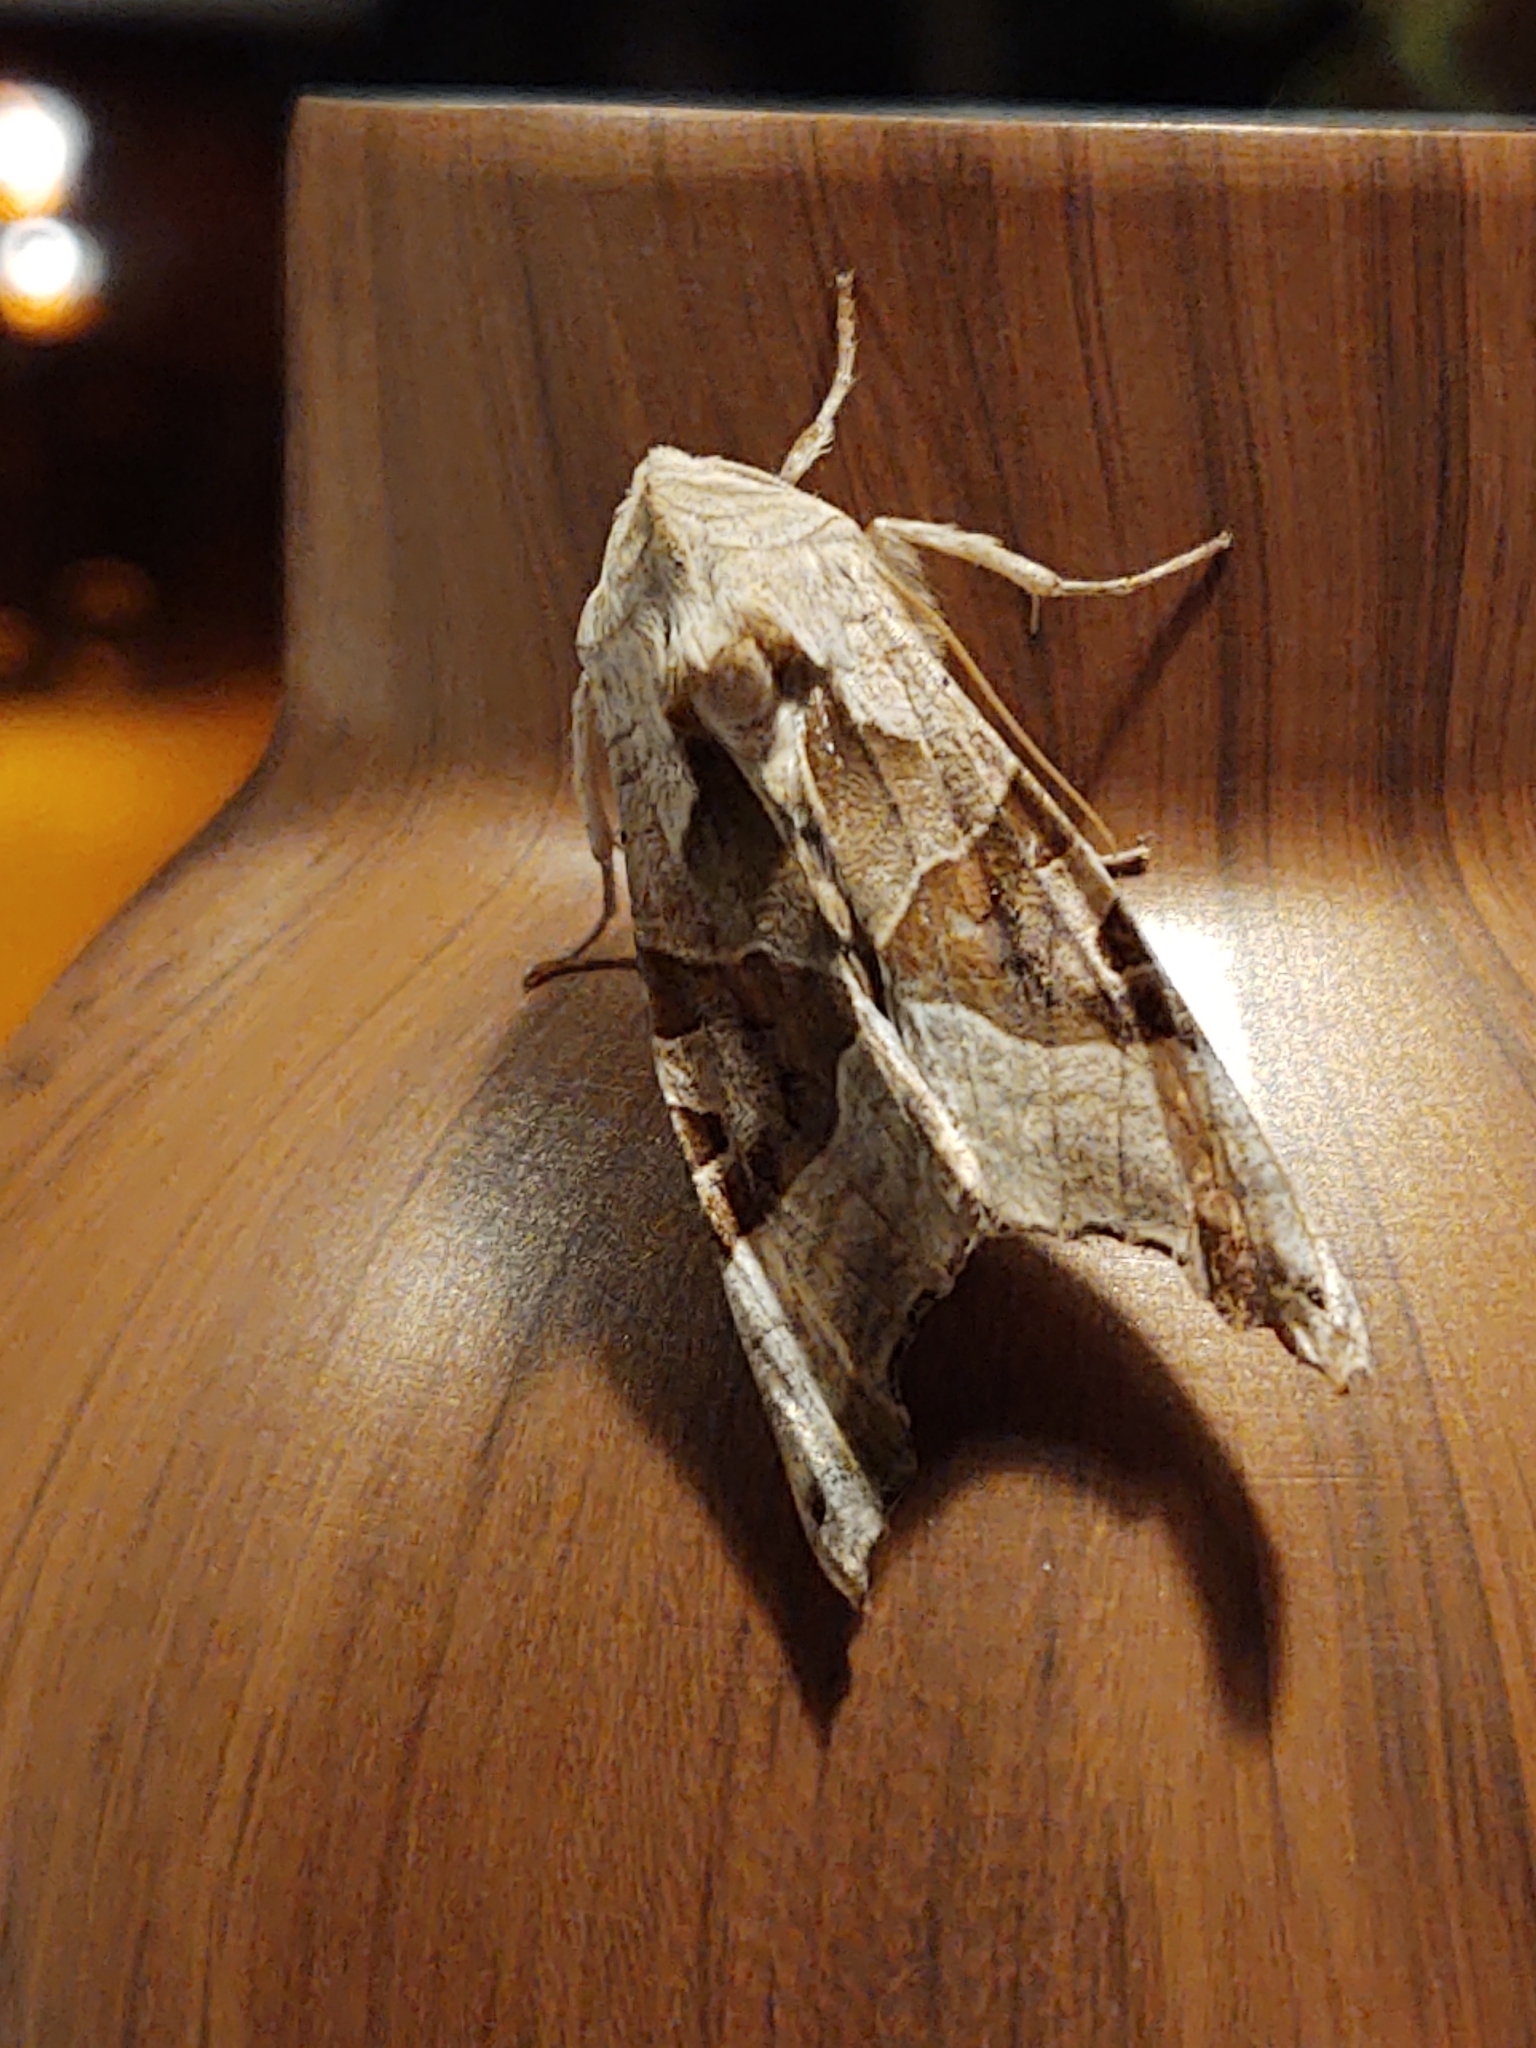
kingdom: Animalia
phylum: Arthropoda
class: Insecta
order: Lepidoptera
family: Noctuidae
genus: Phlogophora
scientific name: Phlogophora meticulosa
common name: Angle shades
